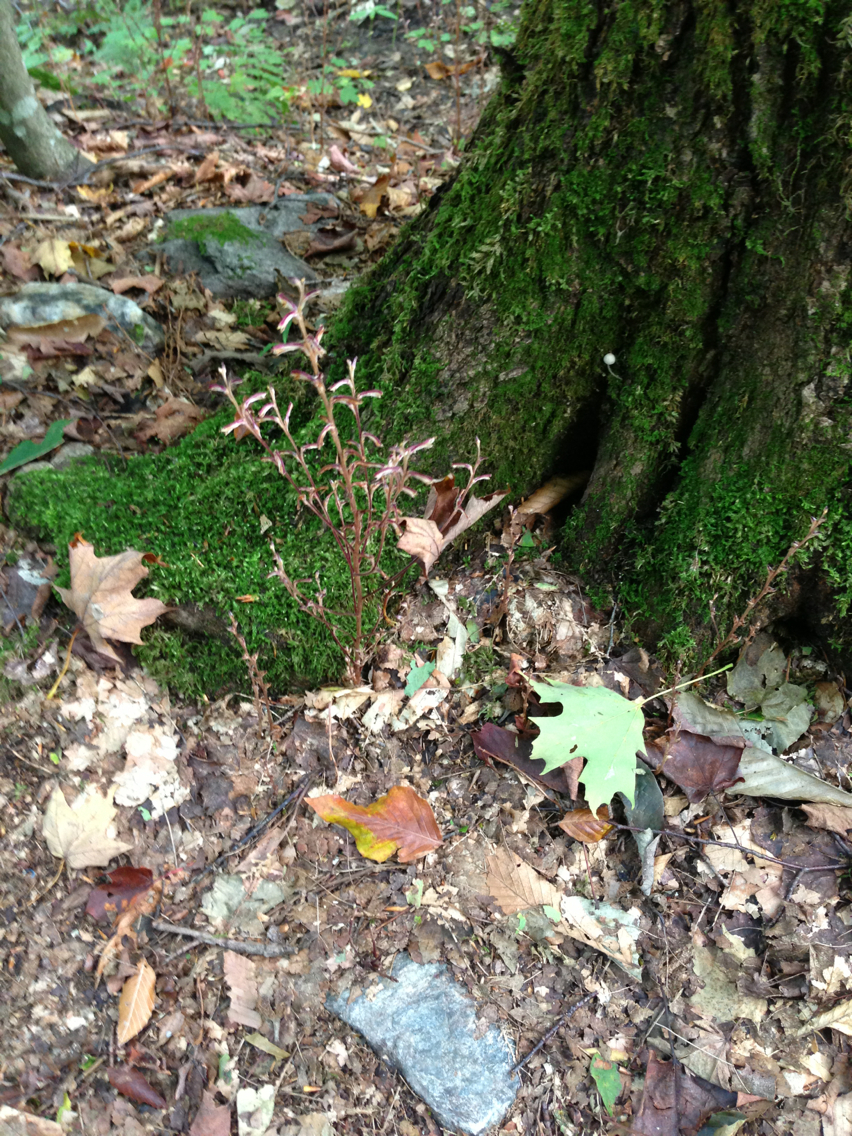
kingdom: Plantae
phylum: Tracheophyta
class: Magnoliopsida
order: Lamiales
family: Orobanchaceae
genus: Epifagus
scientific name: Epifagus virginiana
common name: Beechdrops
